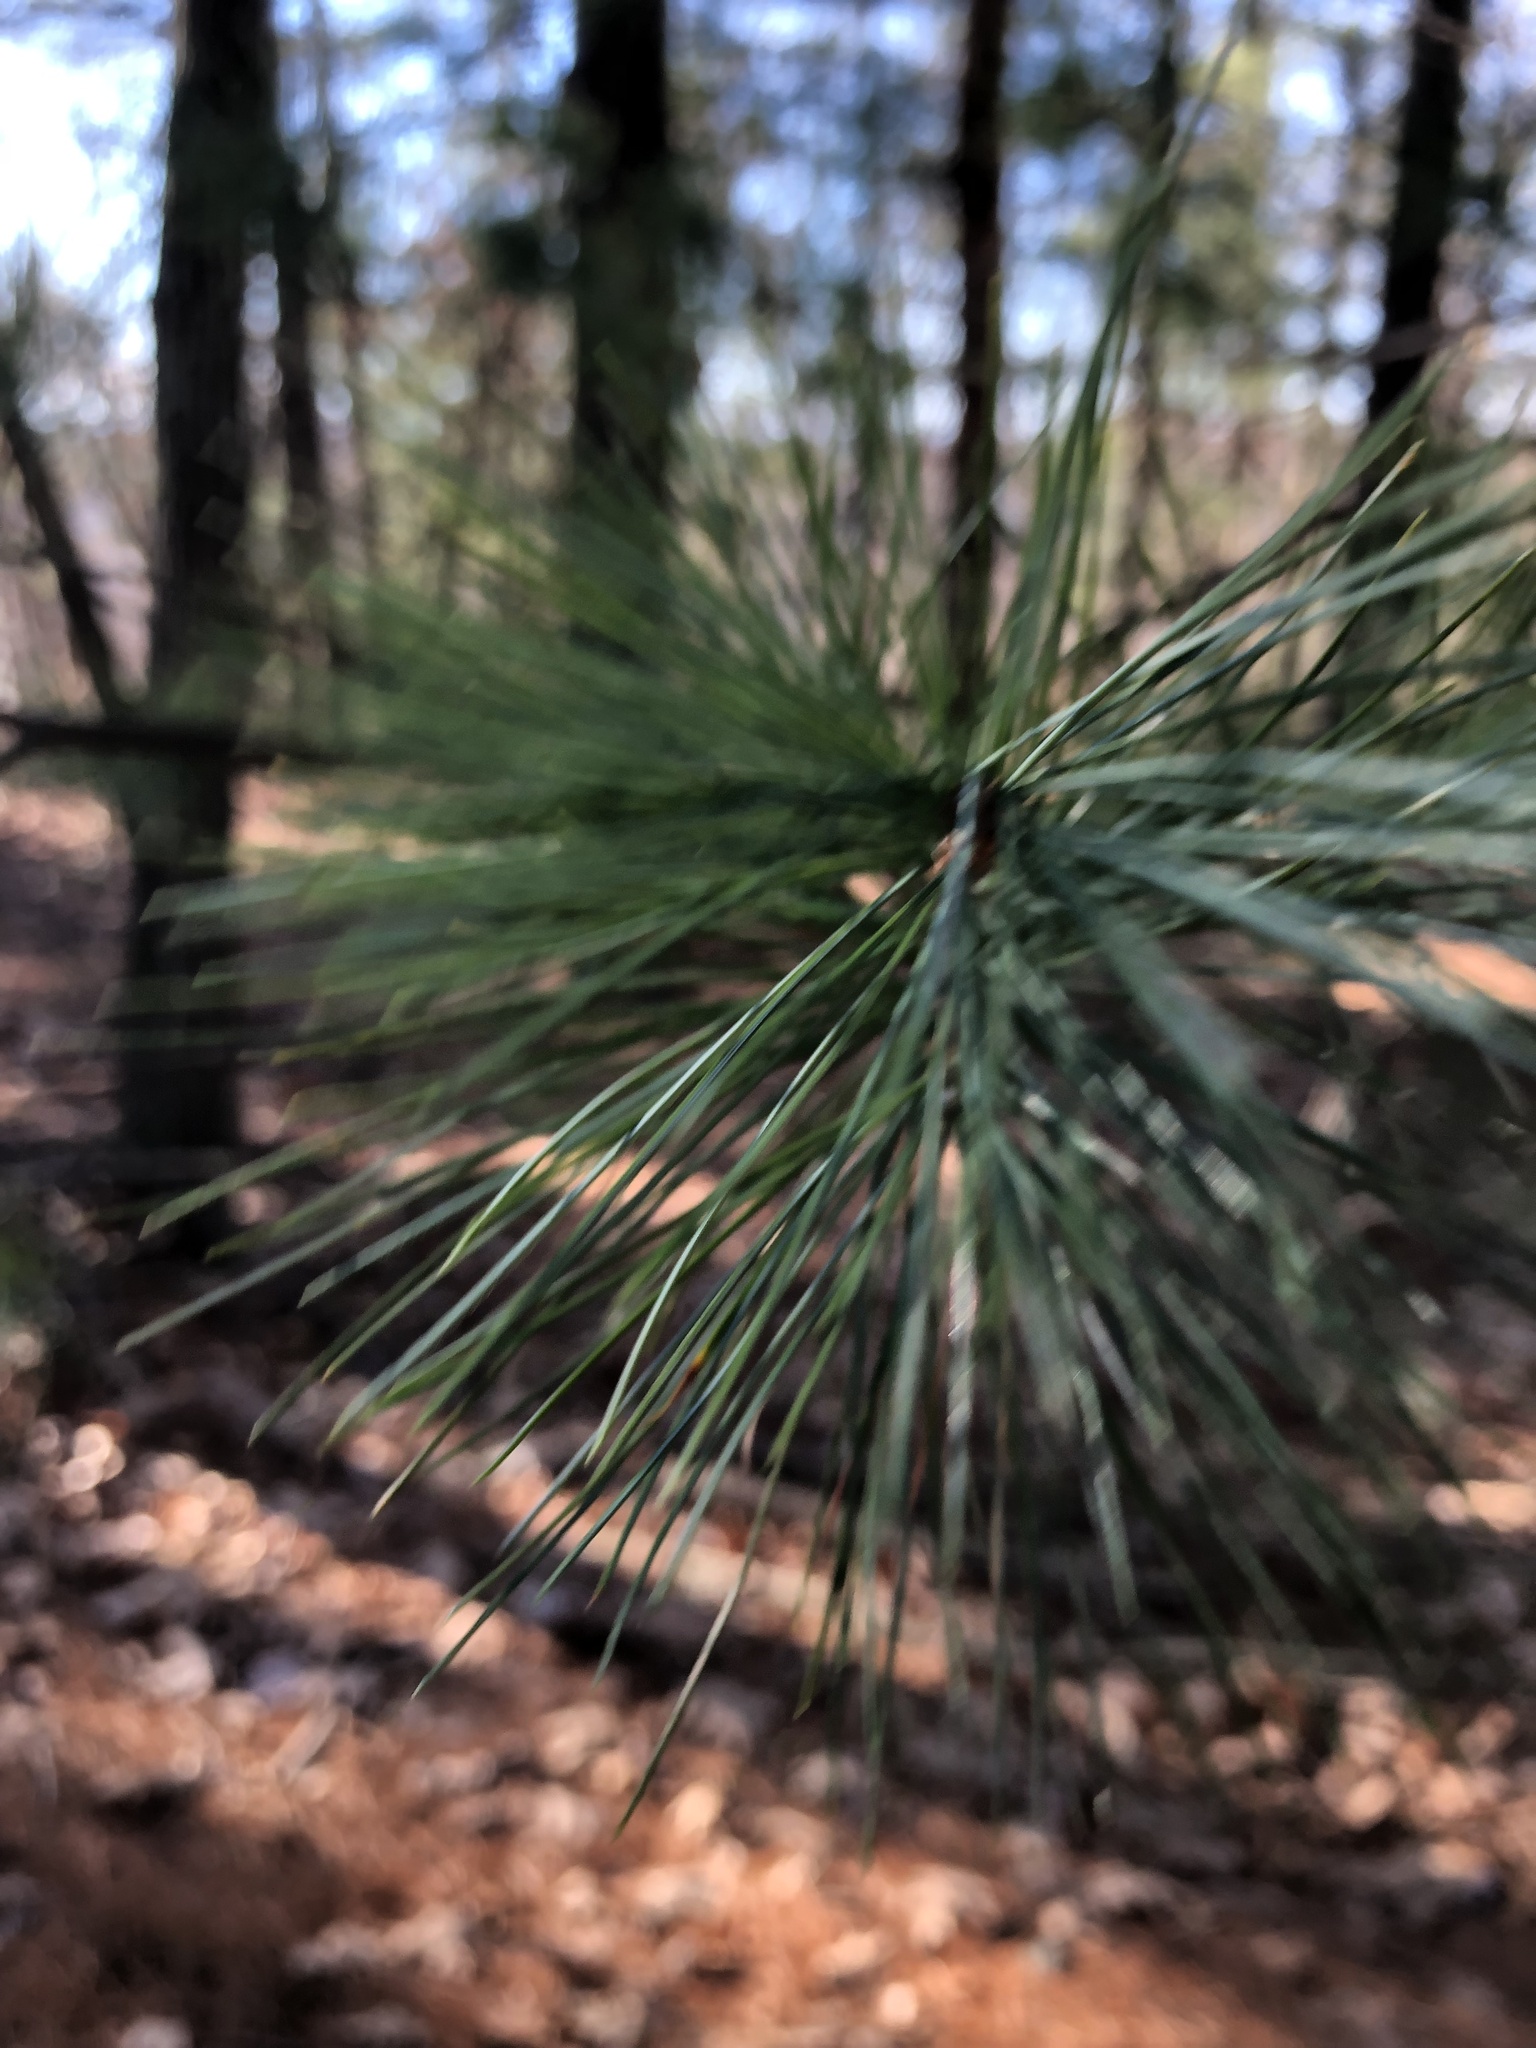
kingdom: Plantae
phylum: Tracheophyta
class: Pinopsida
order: Pinales
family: Pinaceae
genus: Pinus
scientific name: Pinus strobus
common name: Weymouth pine
